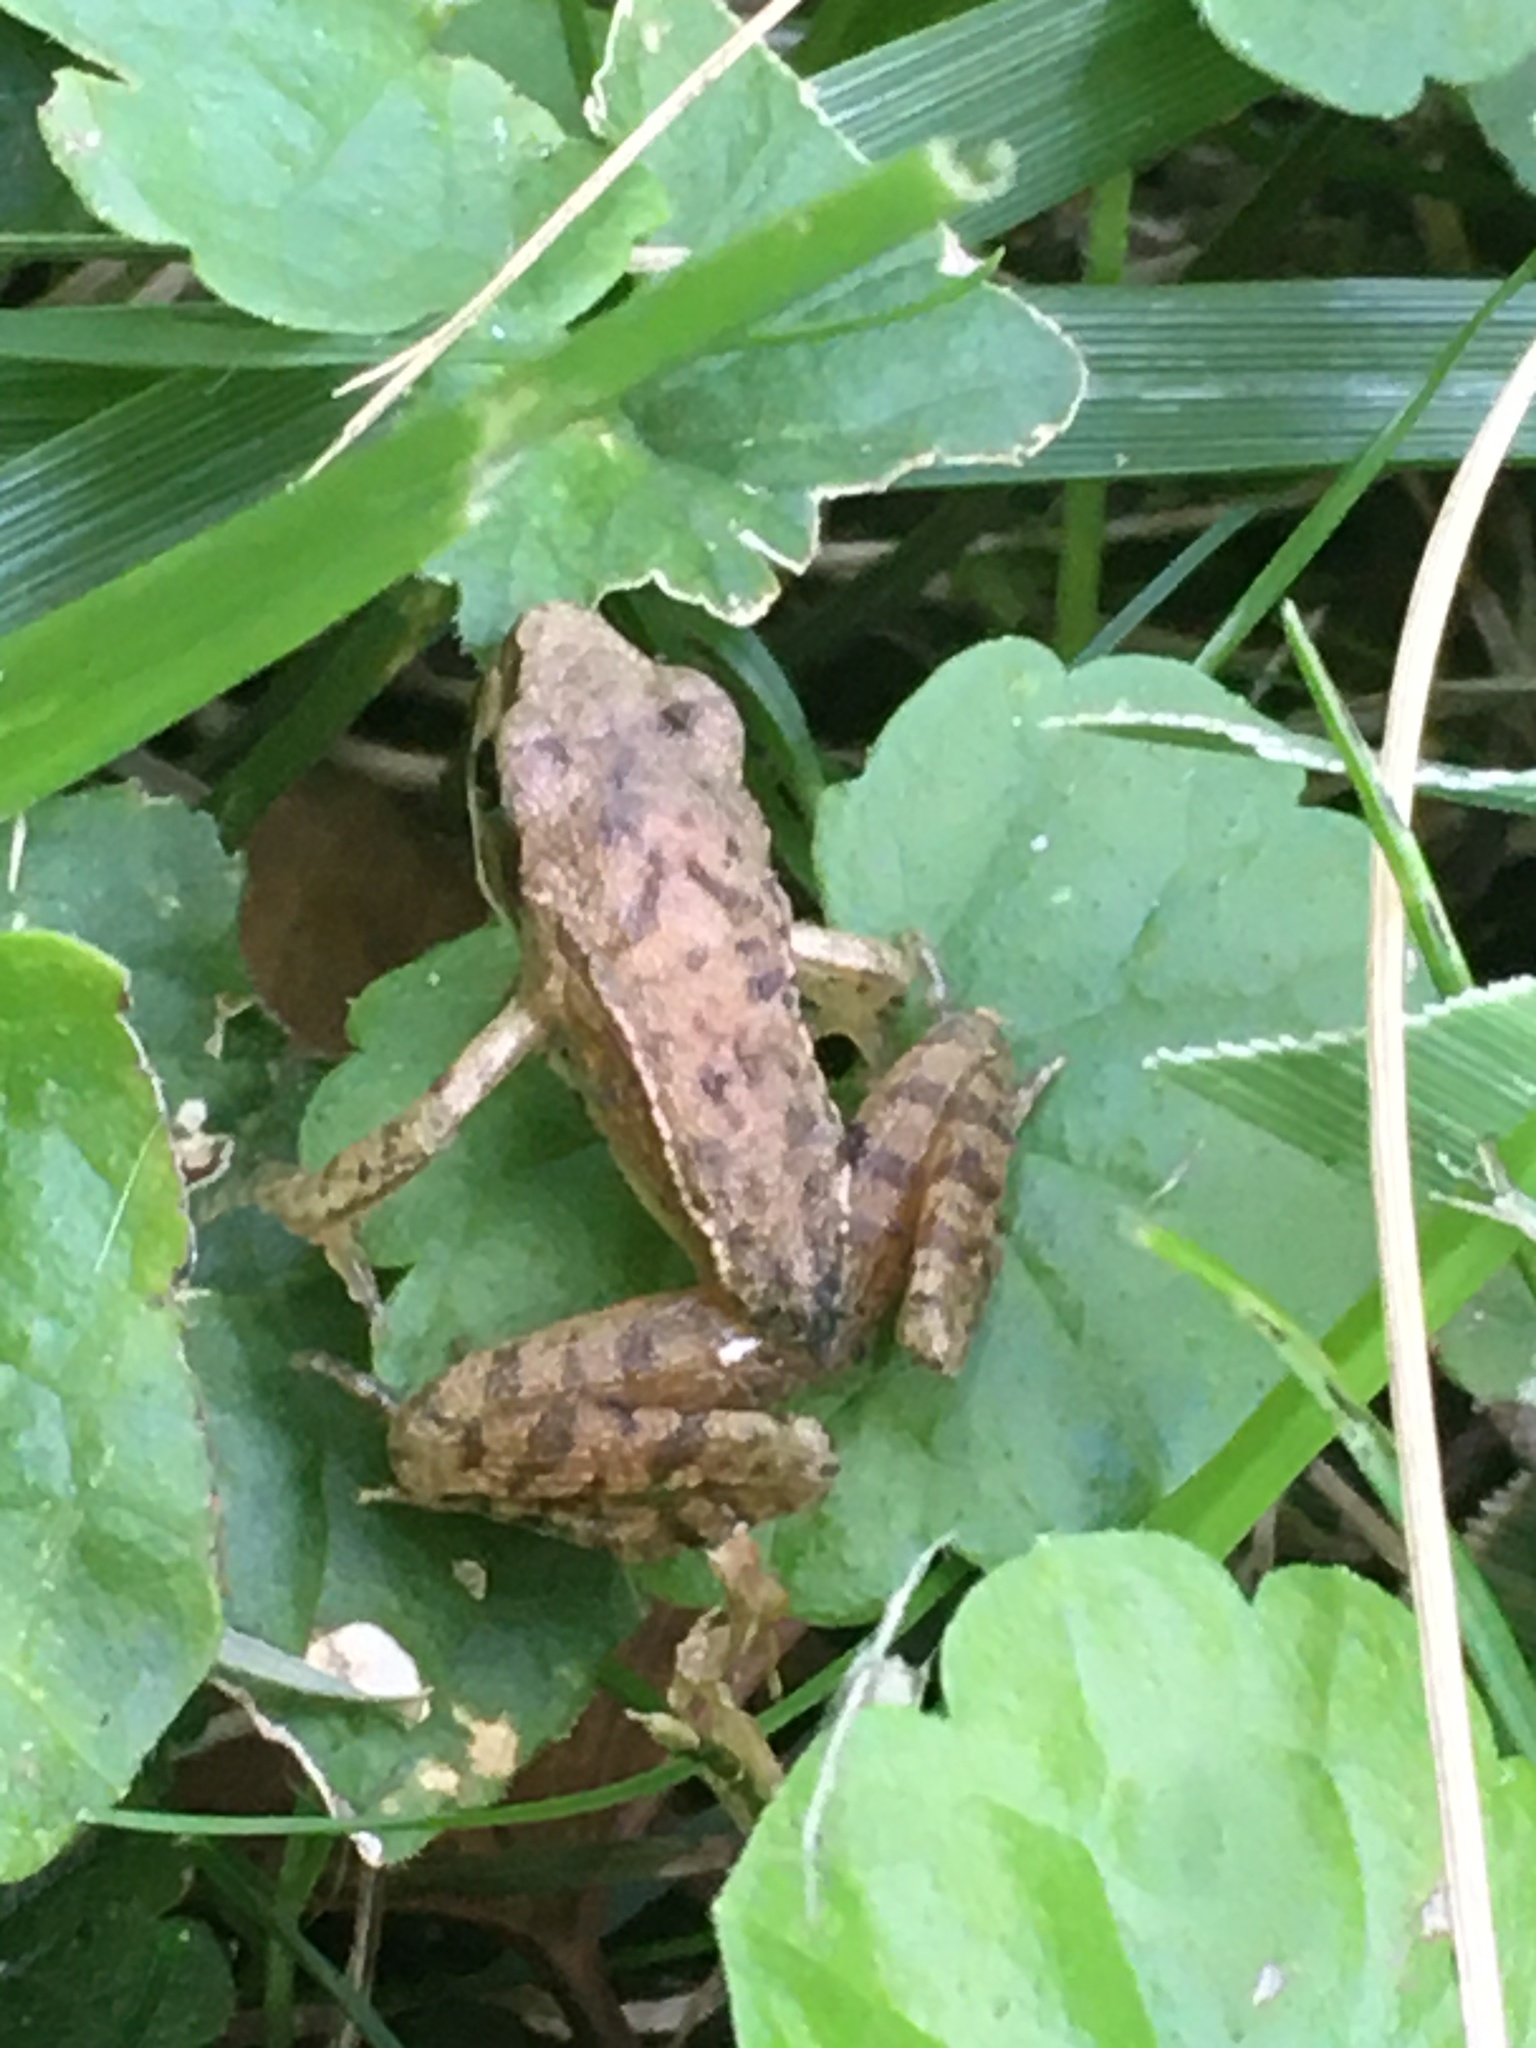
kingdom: Animalia
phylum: Chordata
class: Amphibia
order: Anura
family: Ranidae
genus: Rana
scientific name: Rana temporaria
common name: Common frog
